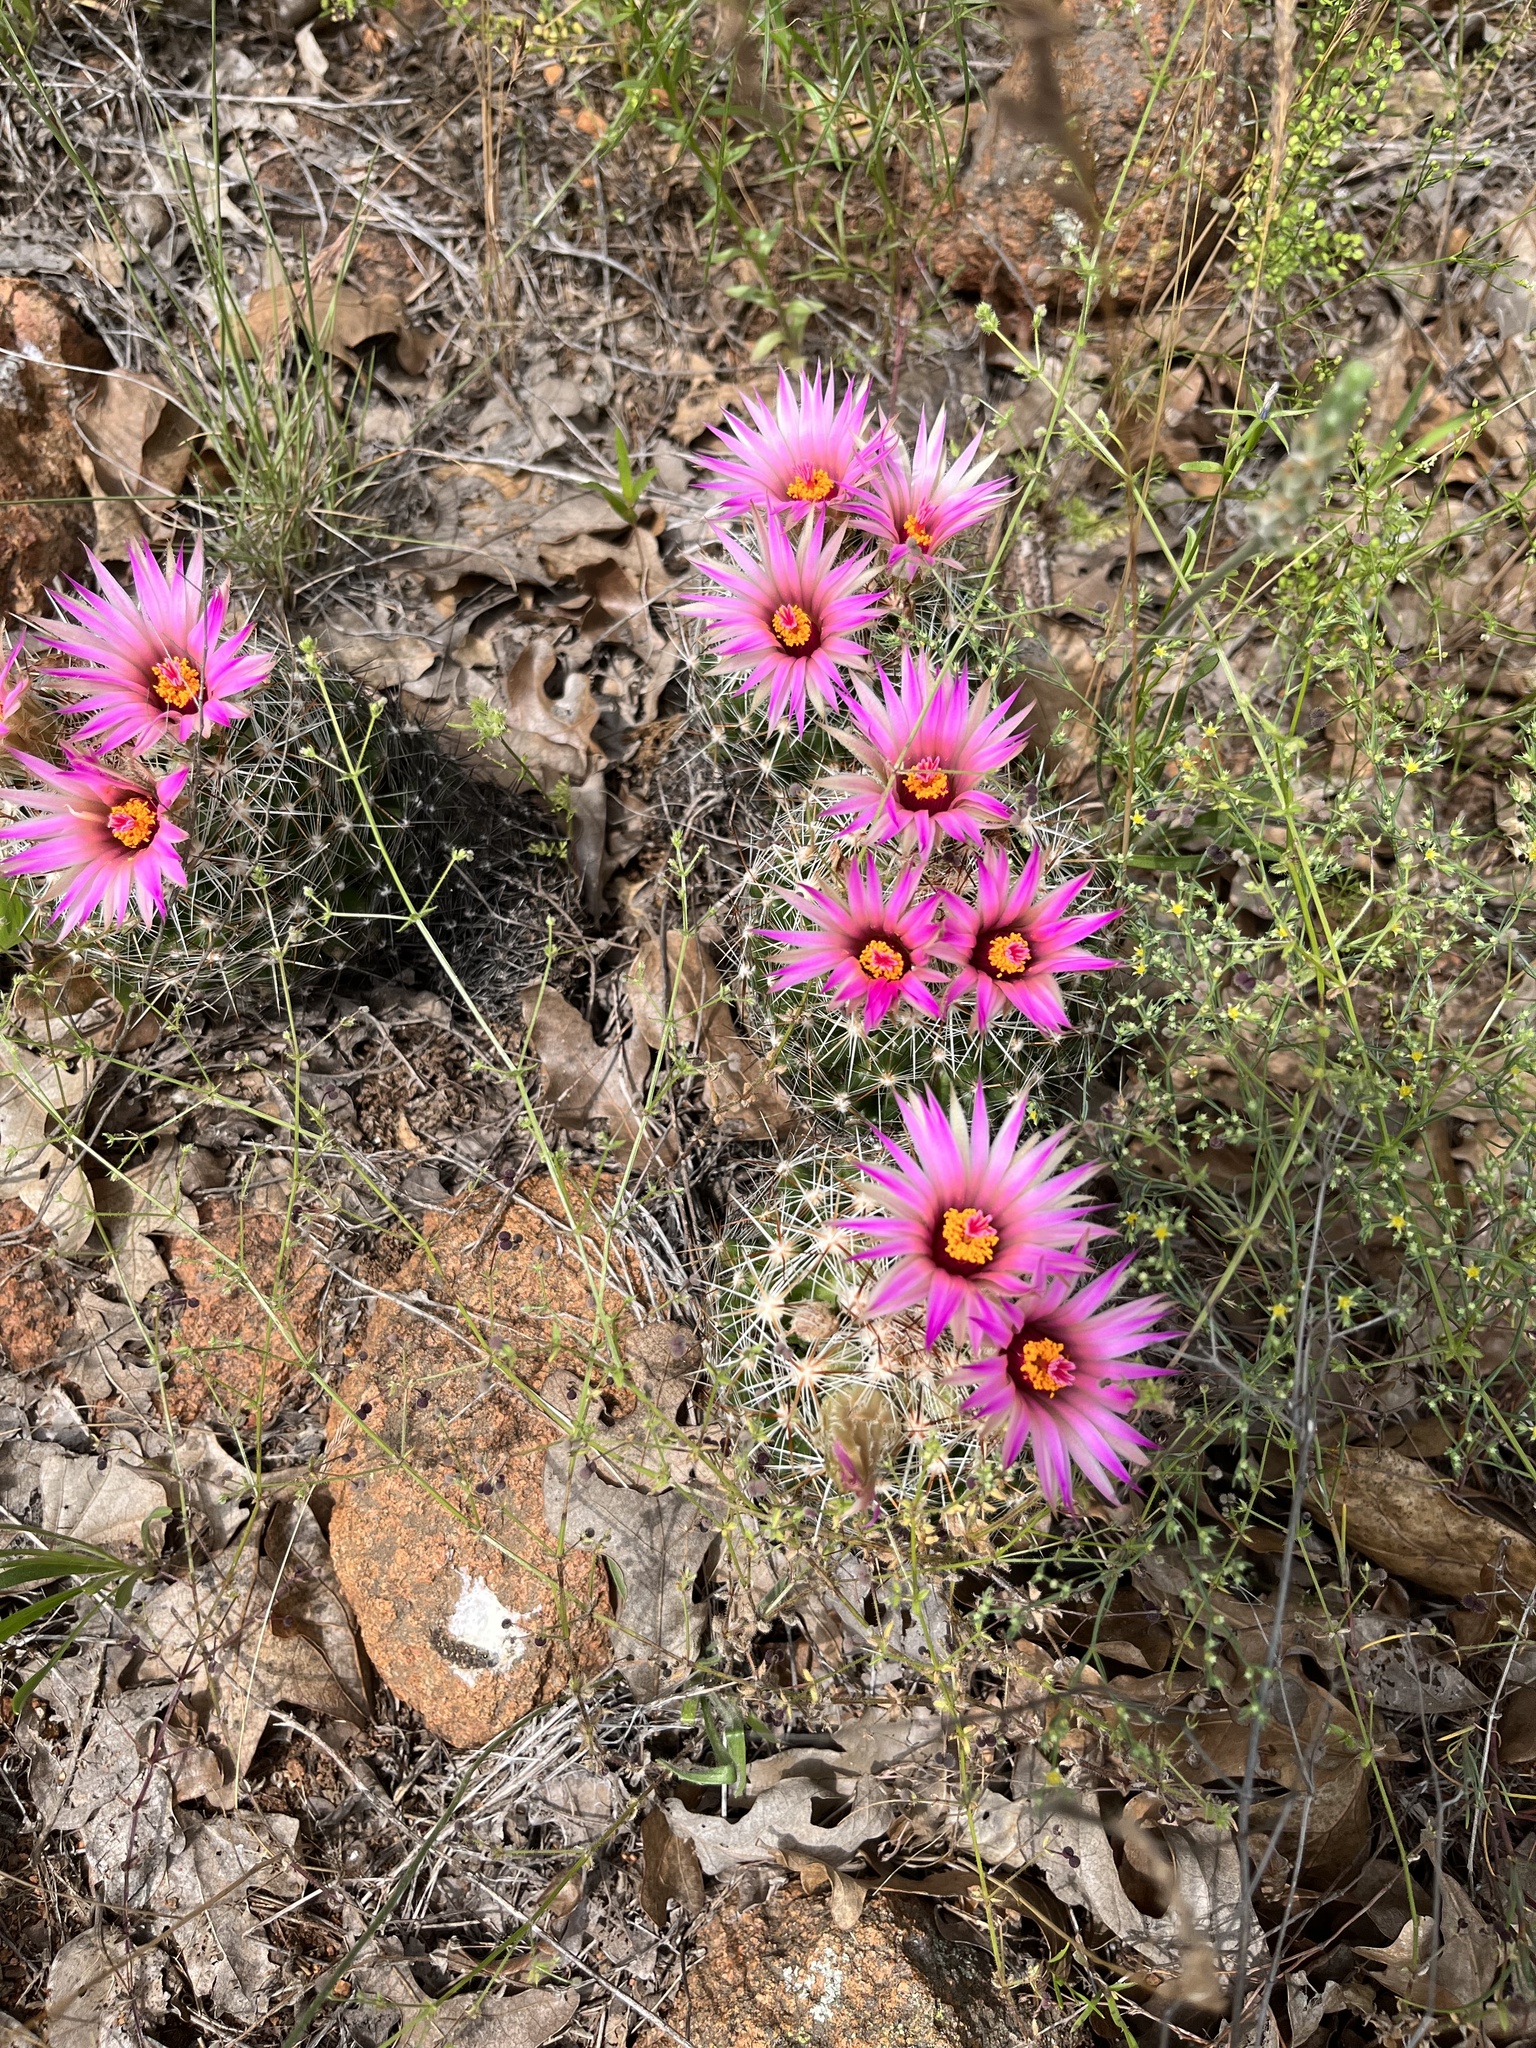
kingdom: Plantae
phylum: Tracheophyta
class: Magnoliopsida
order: Caryophyllales
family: Cactaceae
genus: Pelecyphora
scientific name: Pelecyphora vivipara
